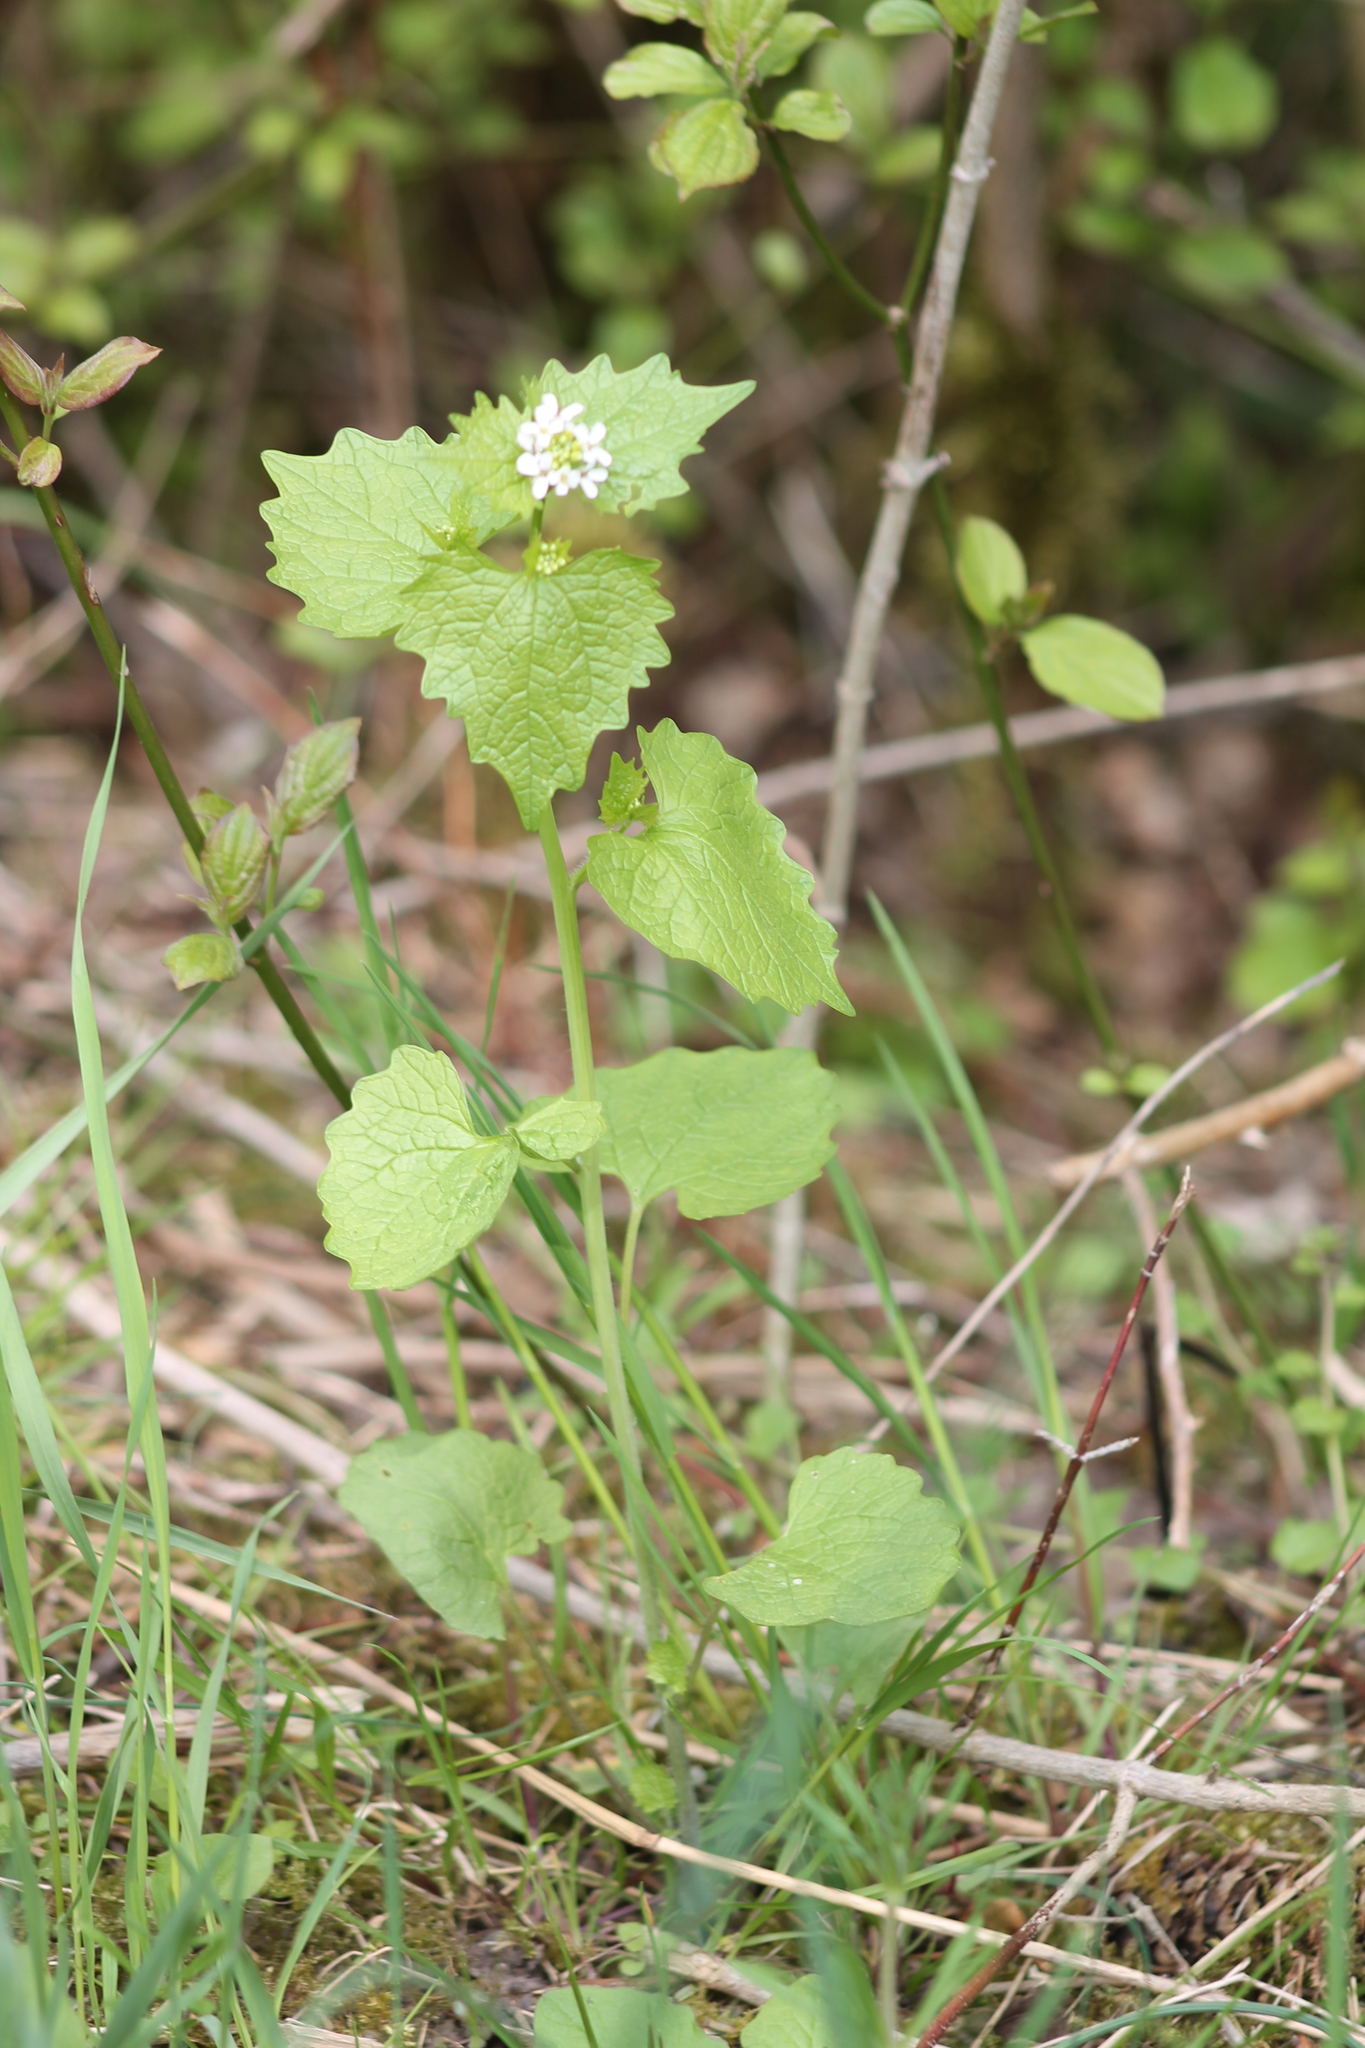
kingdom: Plantae
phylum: Tracheophyta
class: Magnoliopsida
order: Brassicales
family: Brassicaceae
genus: Alliaria
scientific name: Alliaria petiolata
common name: Garlic mustard
